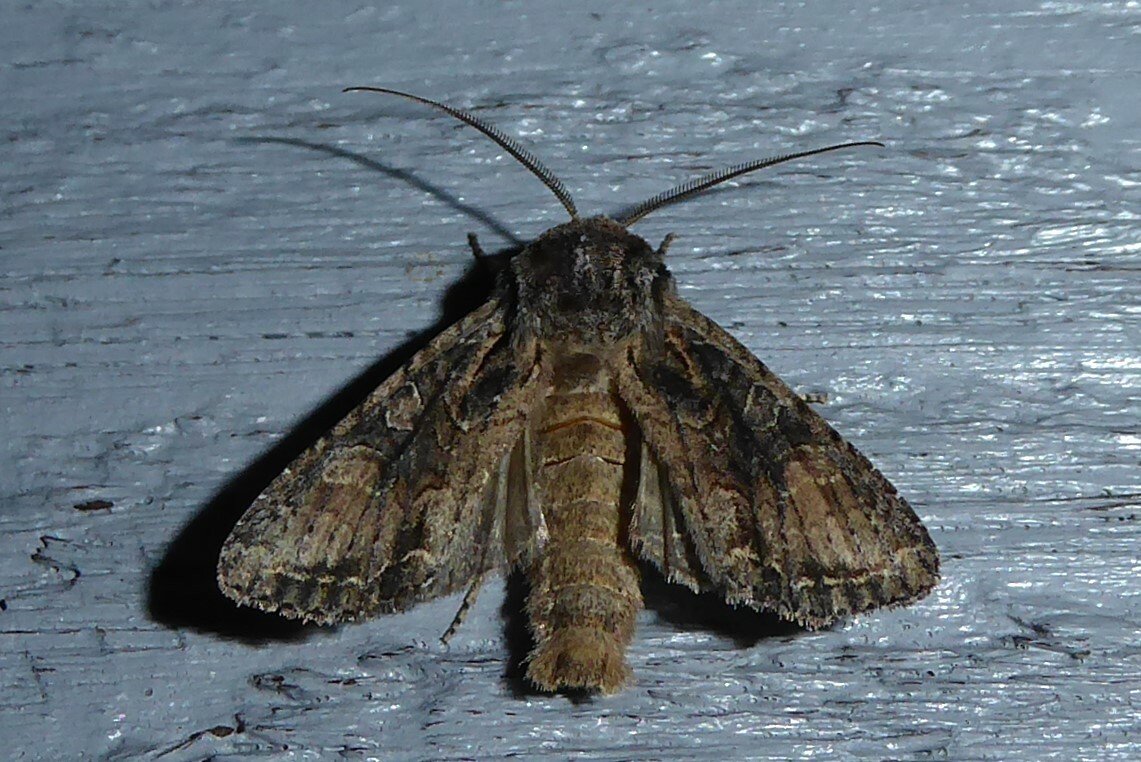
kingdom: Animalia
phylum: Arthropoda
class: Insecta
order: Lepidoptera
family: Noctuidae
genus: Ichneutica
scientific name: Ichneutica mutans
